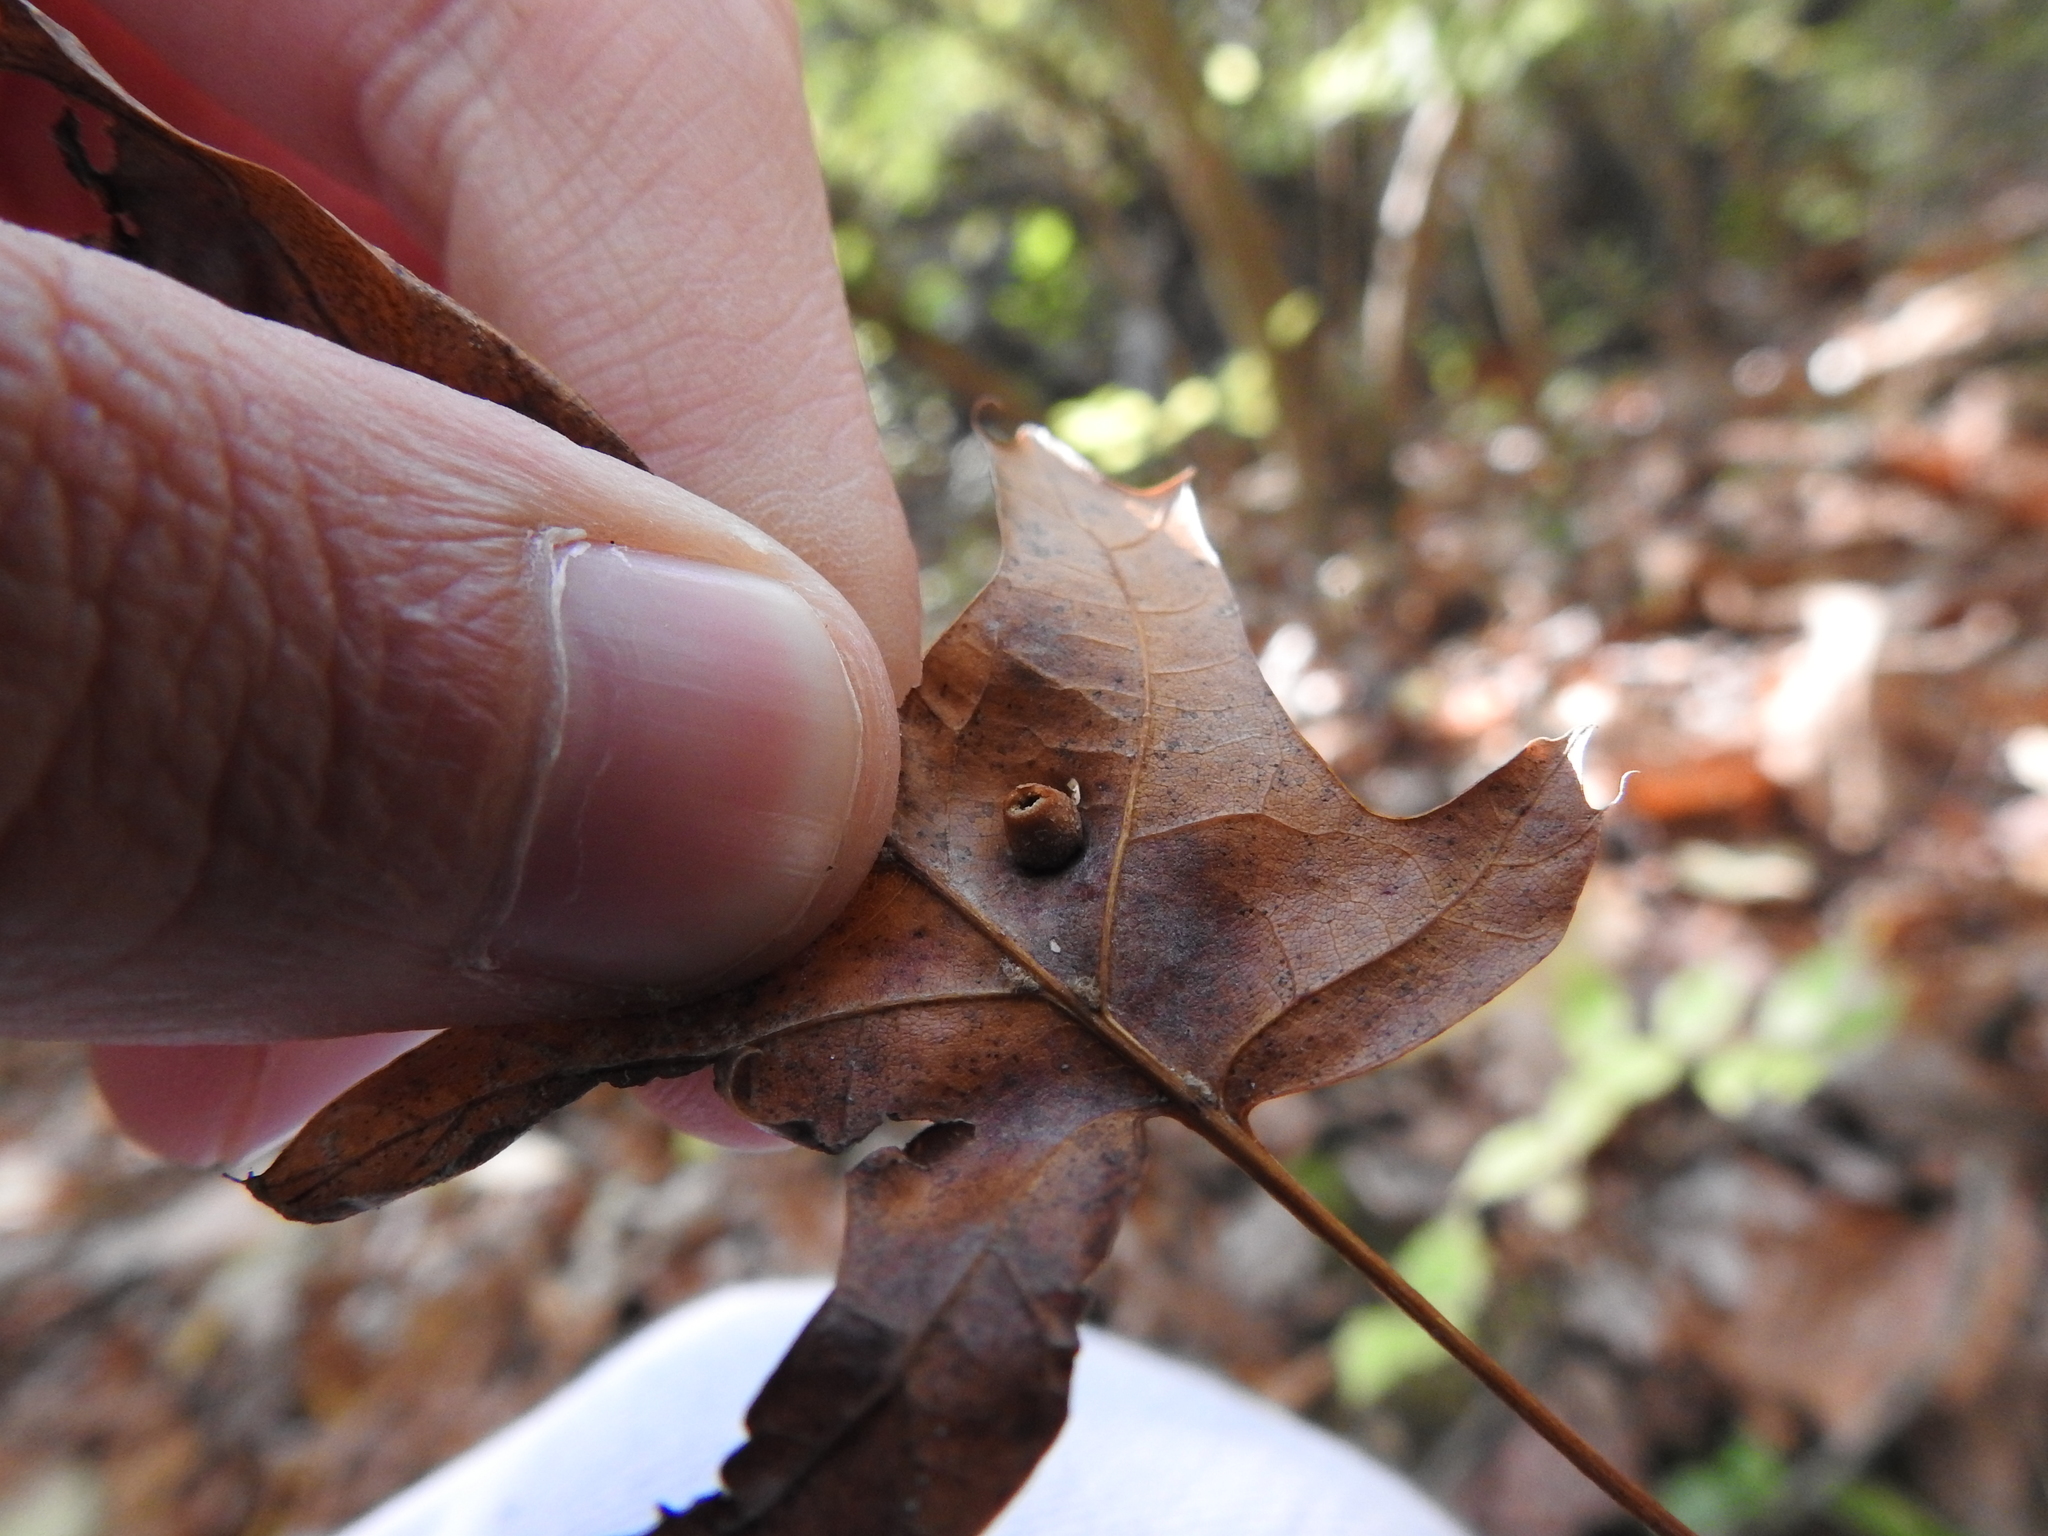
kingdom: Animalia
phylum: Arthropoda
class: Insecta
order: Diptera
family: Cecidomyiidae
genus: Polystepha
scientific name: Polystepha globosa
